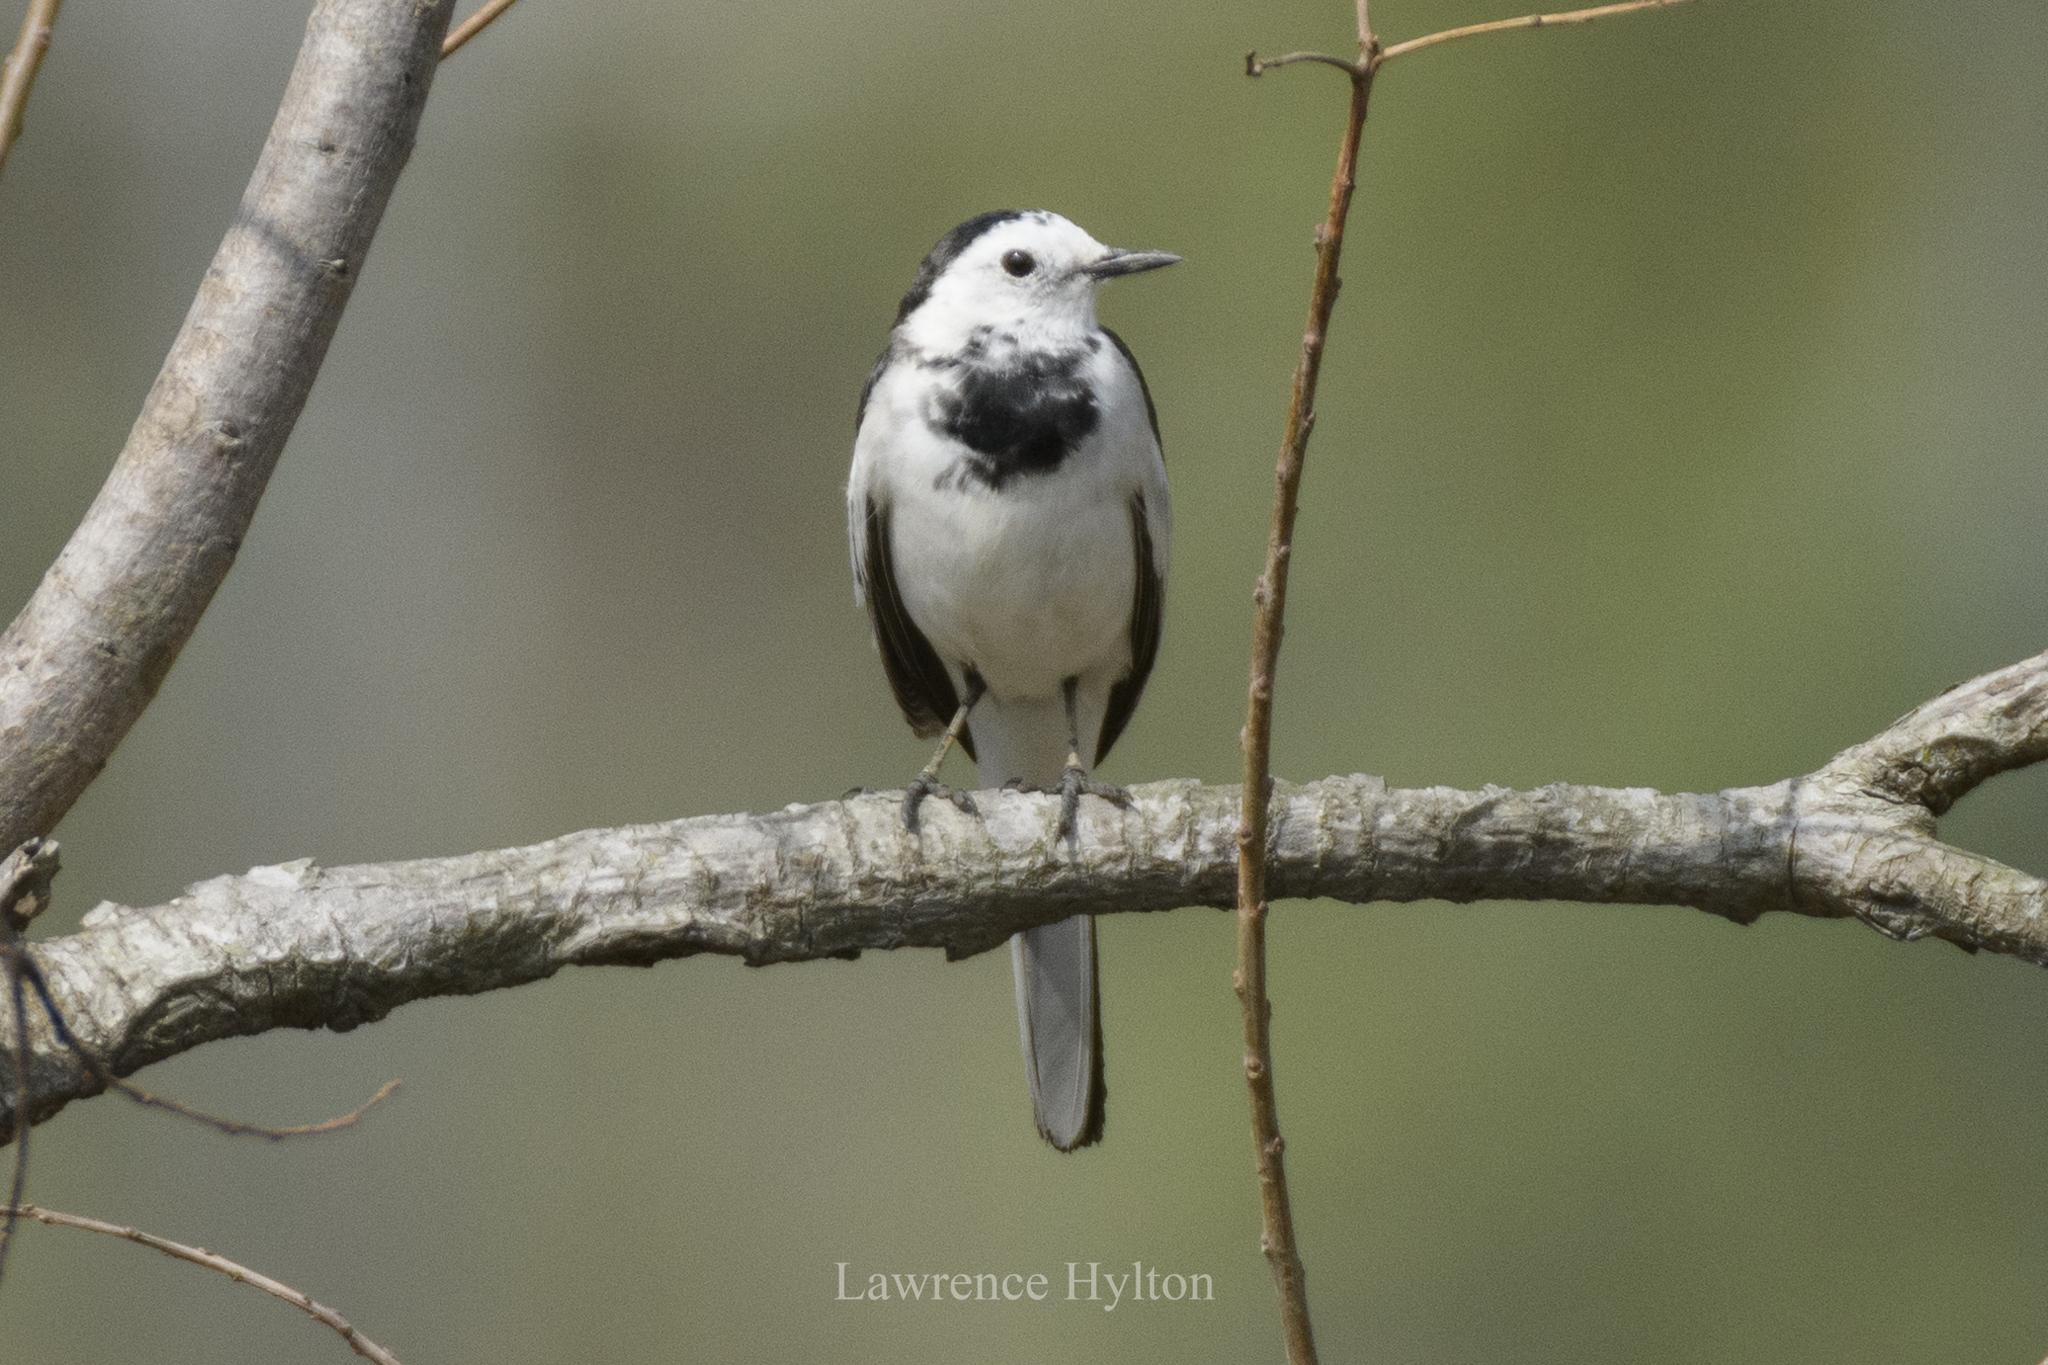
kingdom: Animalia
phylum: Chordata
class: Aves
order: Passeriformes
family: Motacillidae
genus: Motacilla
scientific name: Motacilla alba
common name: White wagtail
